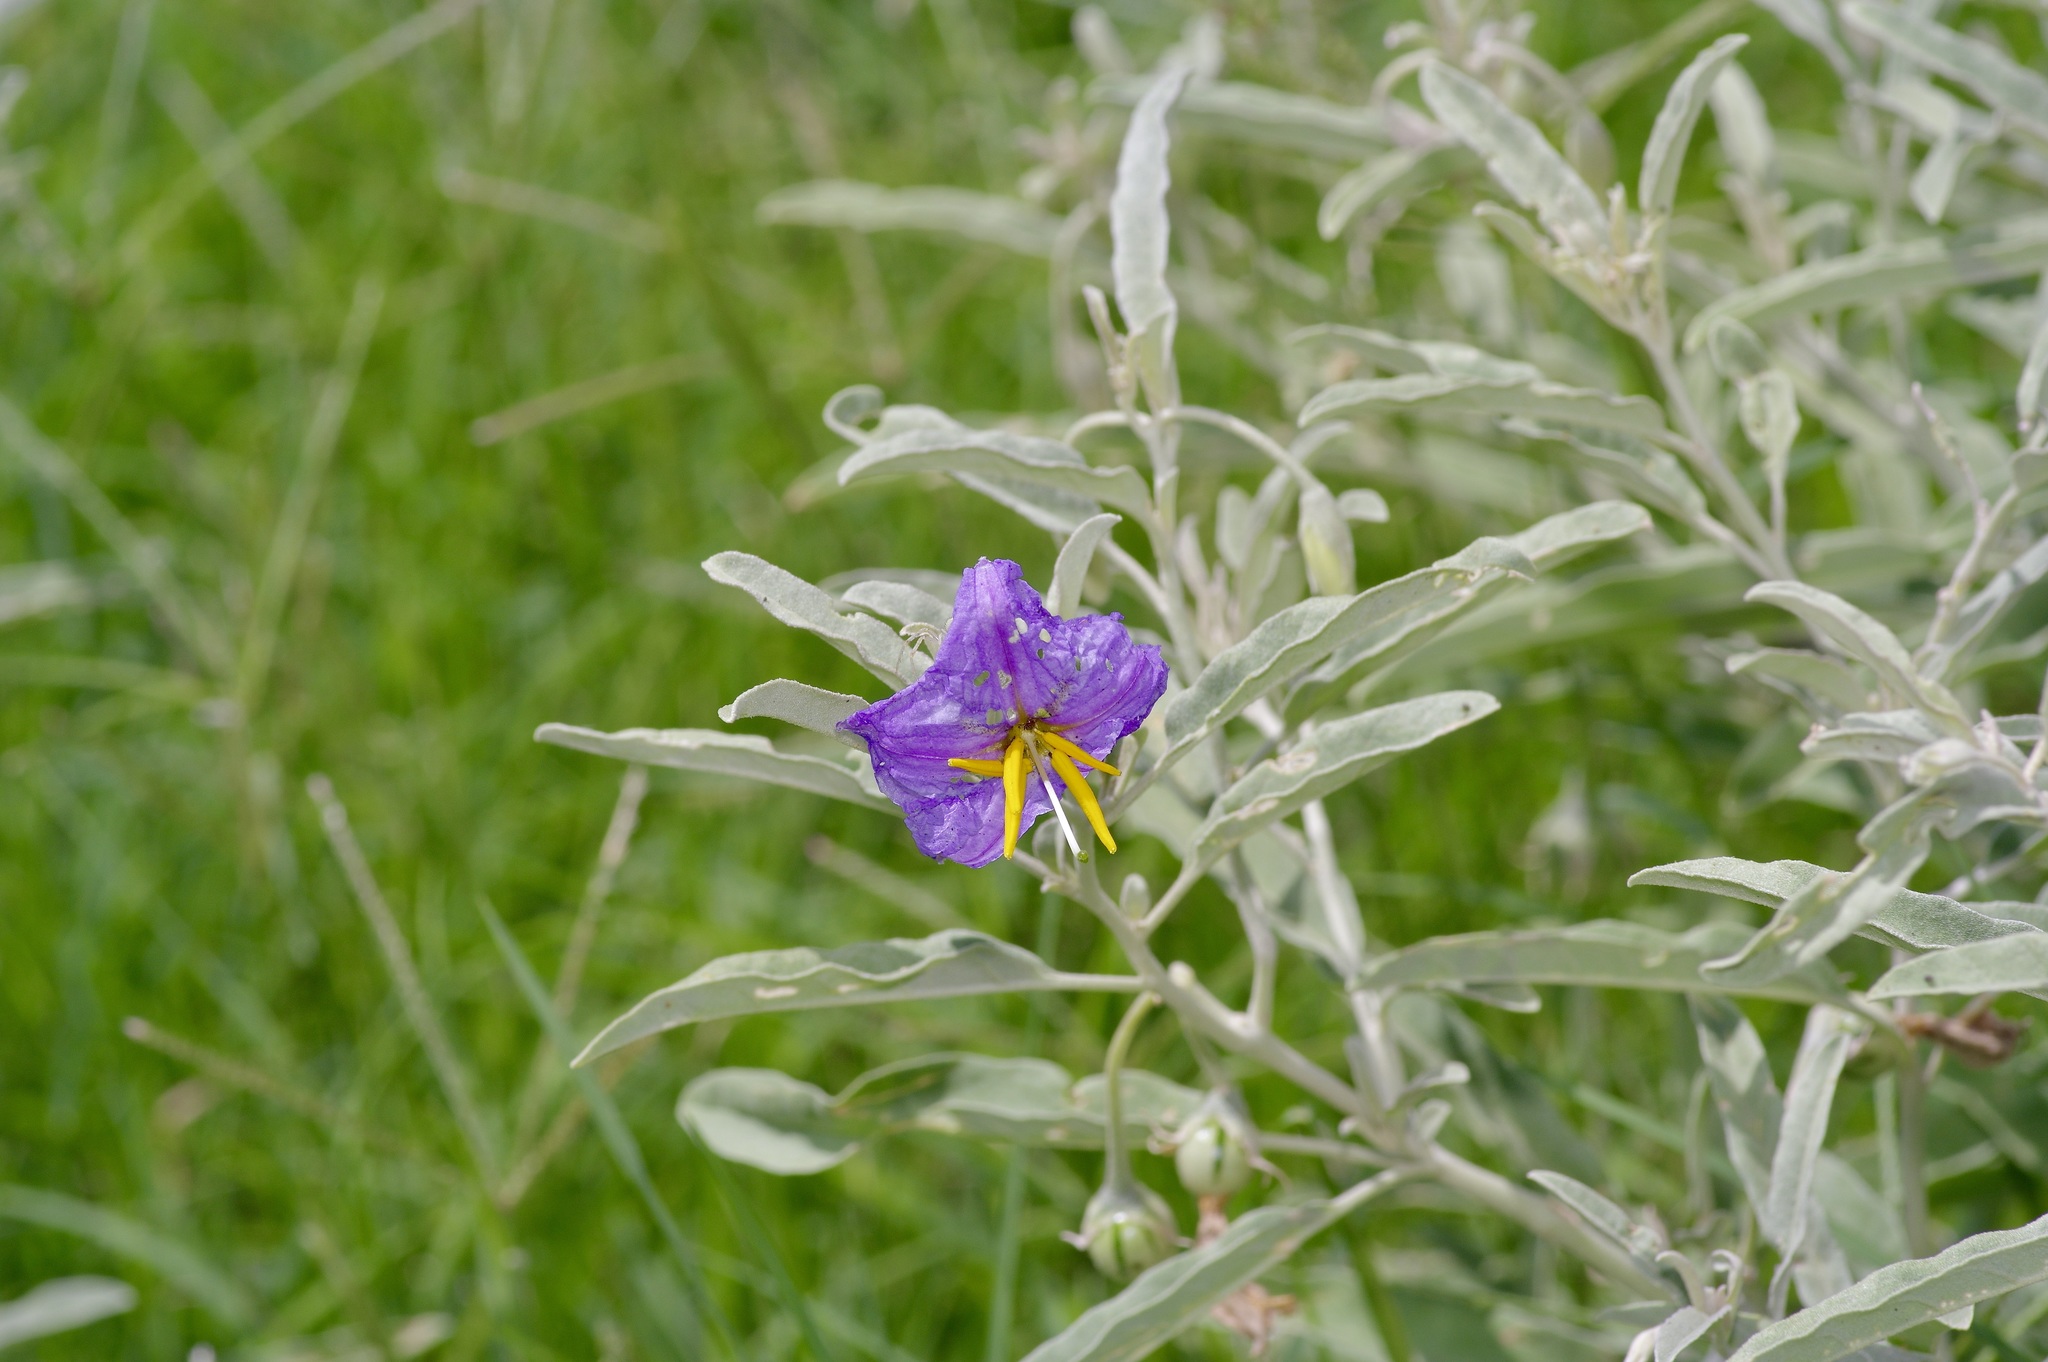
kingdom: Plantae
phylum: Tracheophyta
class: Magnoliopsida
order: Solanales
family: Solanaceae
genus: Solanum
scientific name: Solanum elaeagnifolium
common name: Silverleaf nightshade
